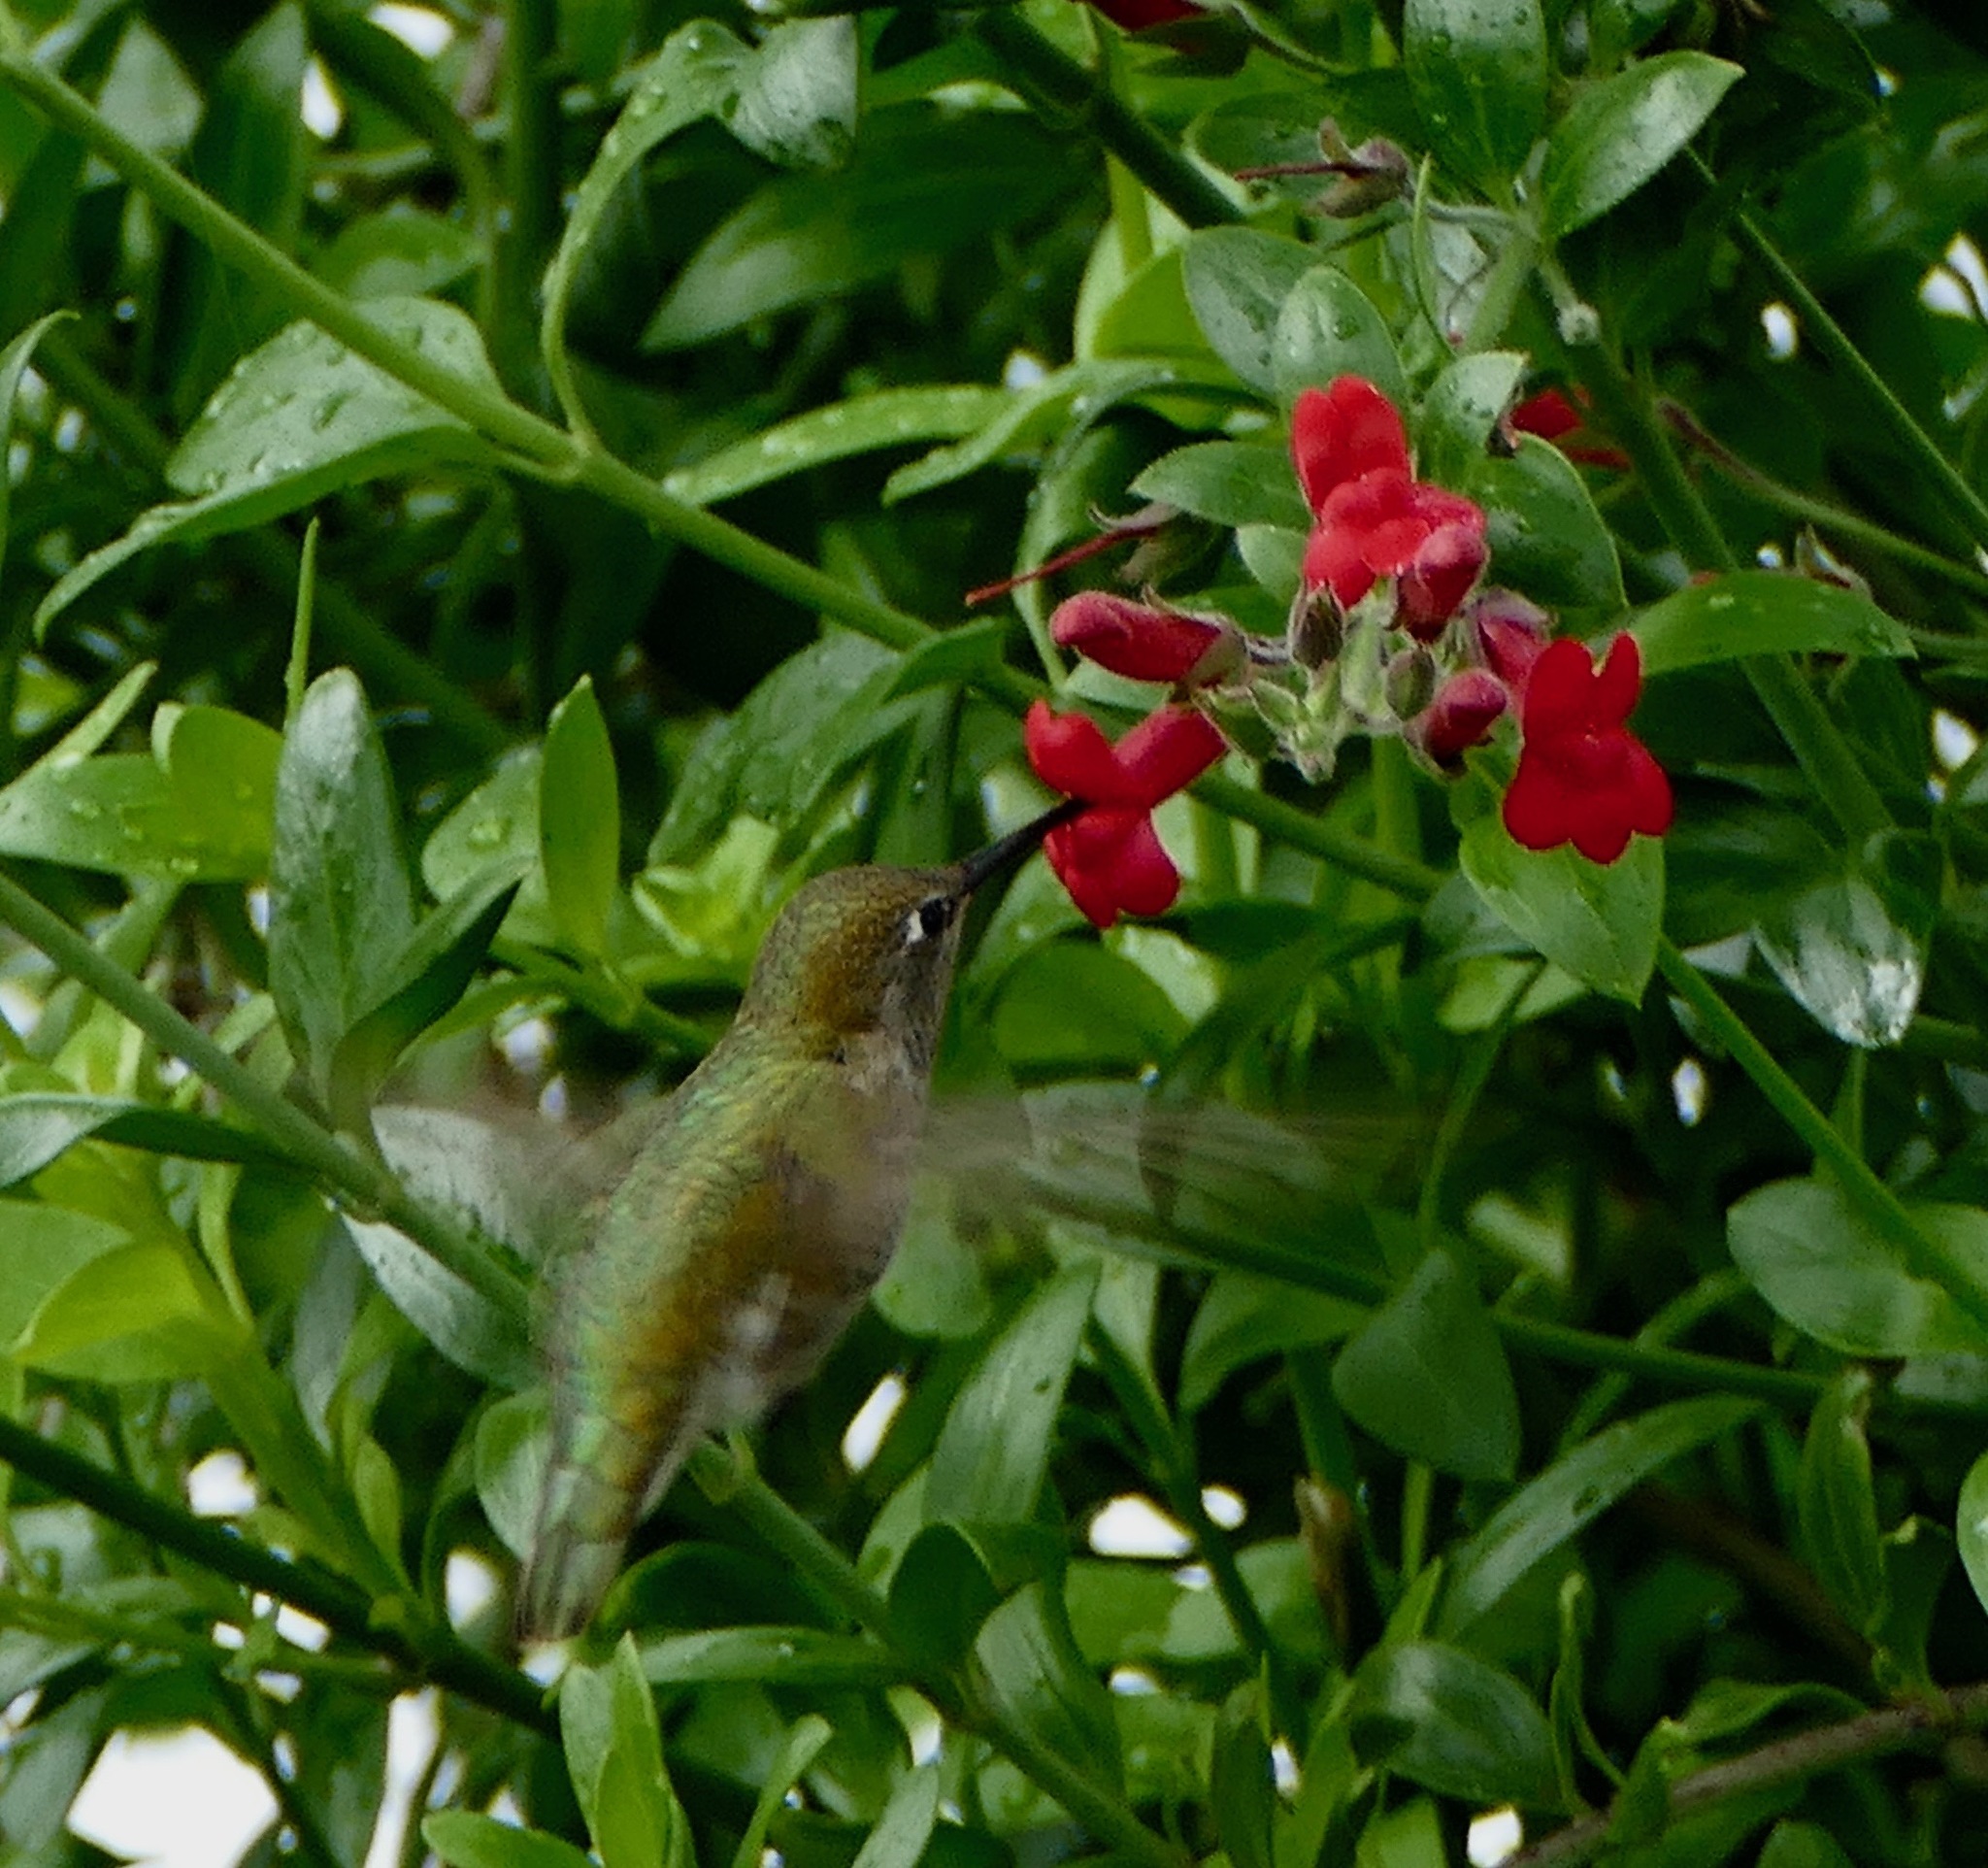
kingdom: Animalia
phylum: Chordata
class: Aves
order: Apodiformes
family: Trochilidae
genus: Calypte
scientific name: Calypte anna
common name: Anna's hummingbird
